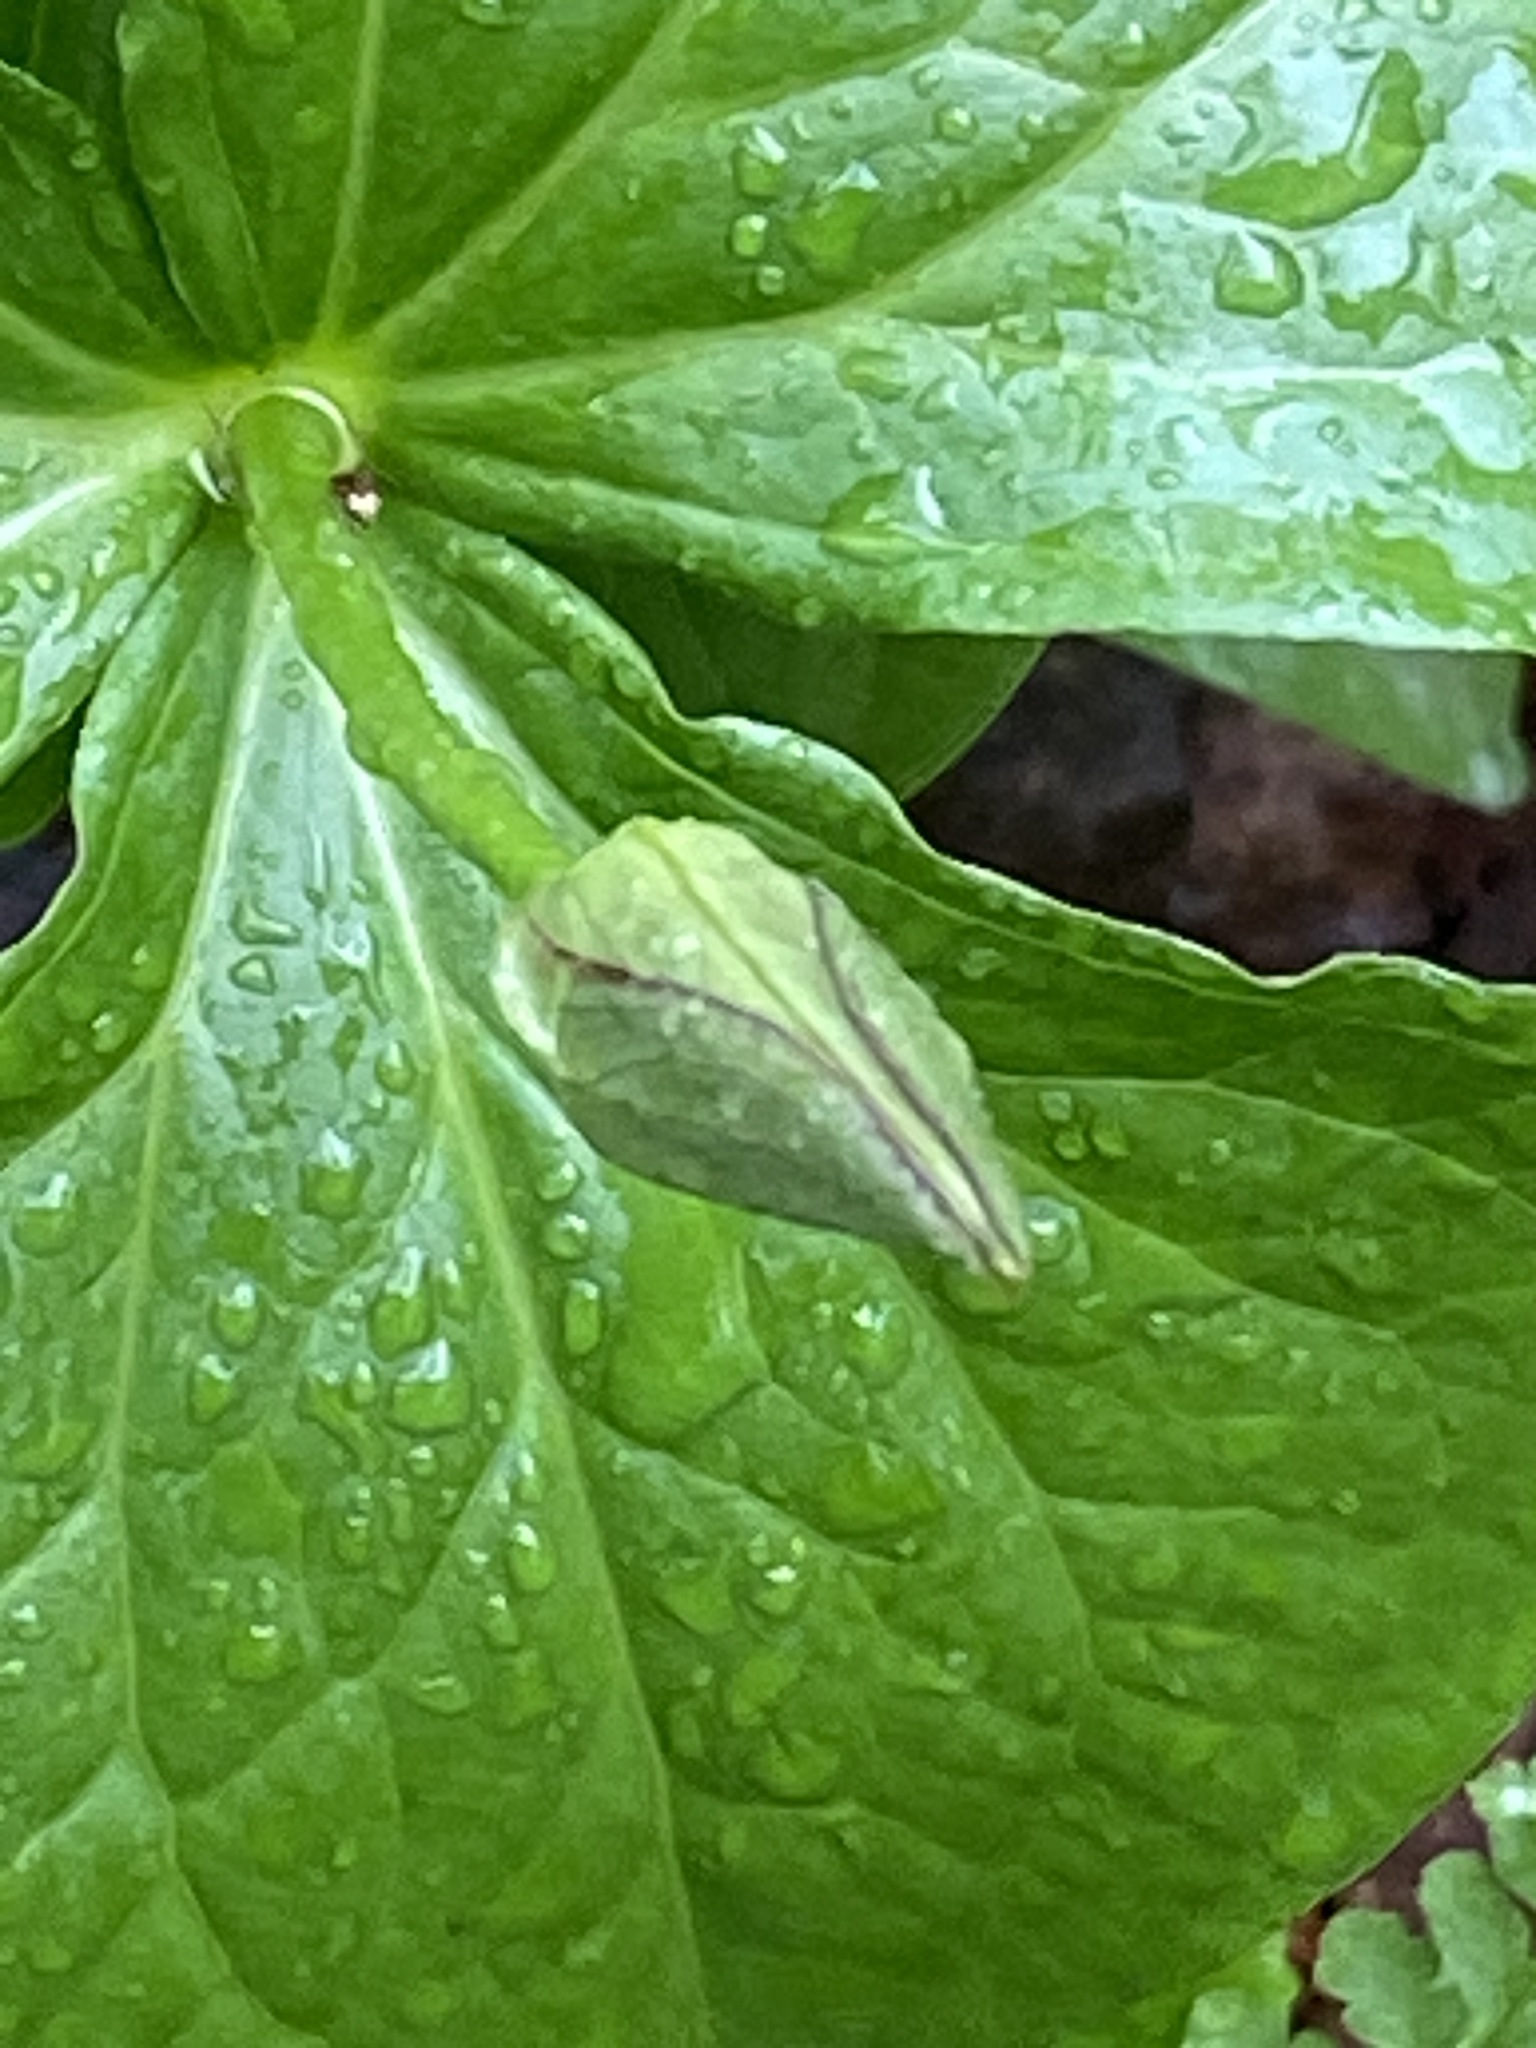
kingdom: Plantae
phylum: Tracheophyta
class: Liliopsida
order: Liliales
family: Melanthiaceae
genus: Trillium
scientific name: Trillium erectum
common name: Purple trillium
